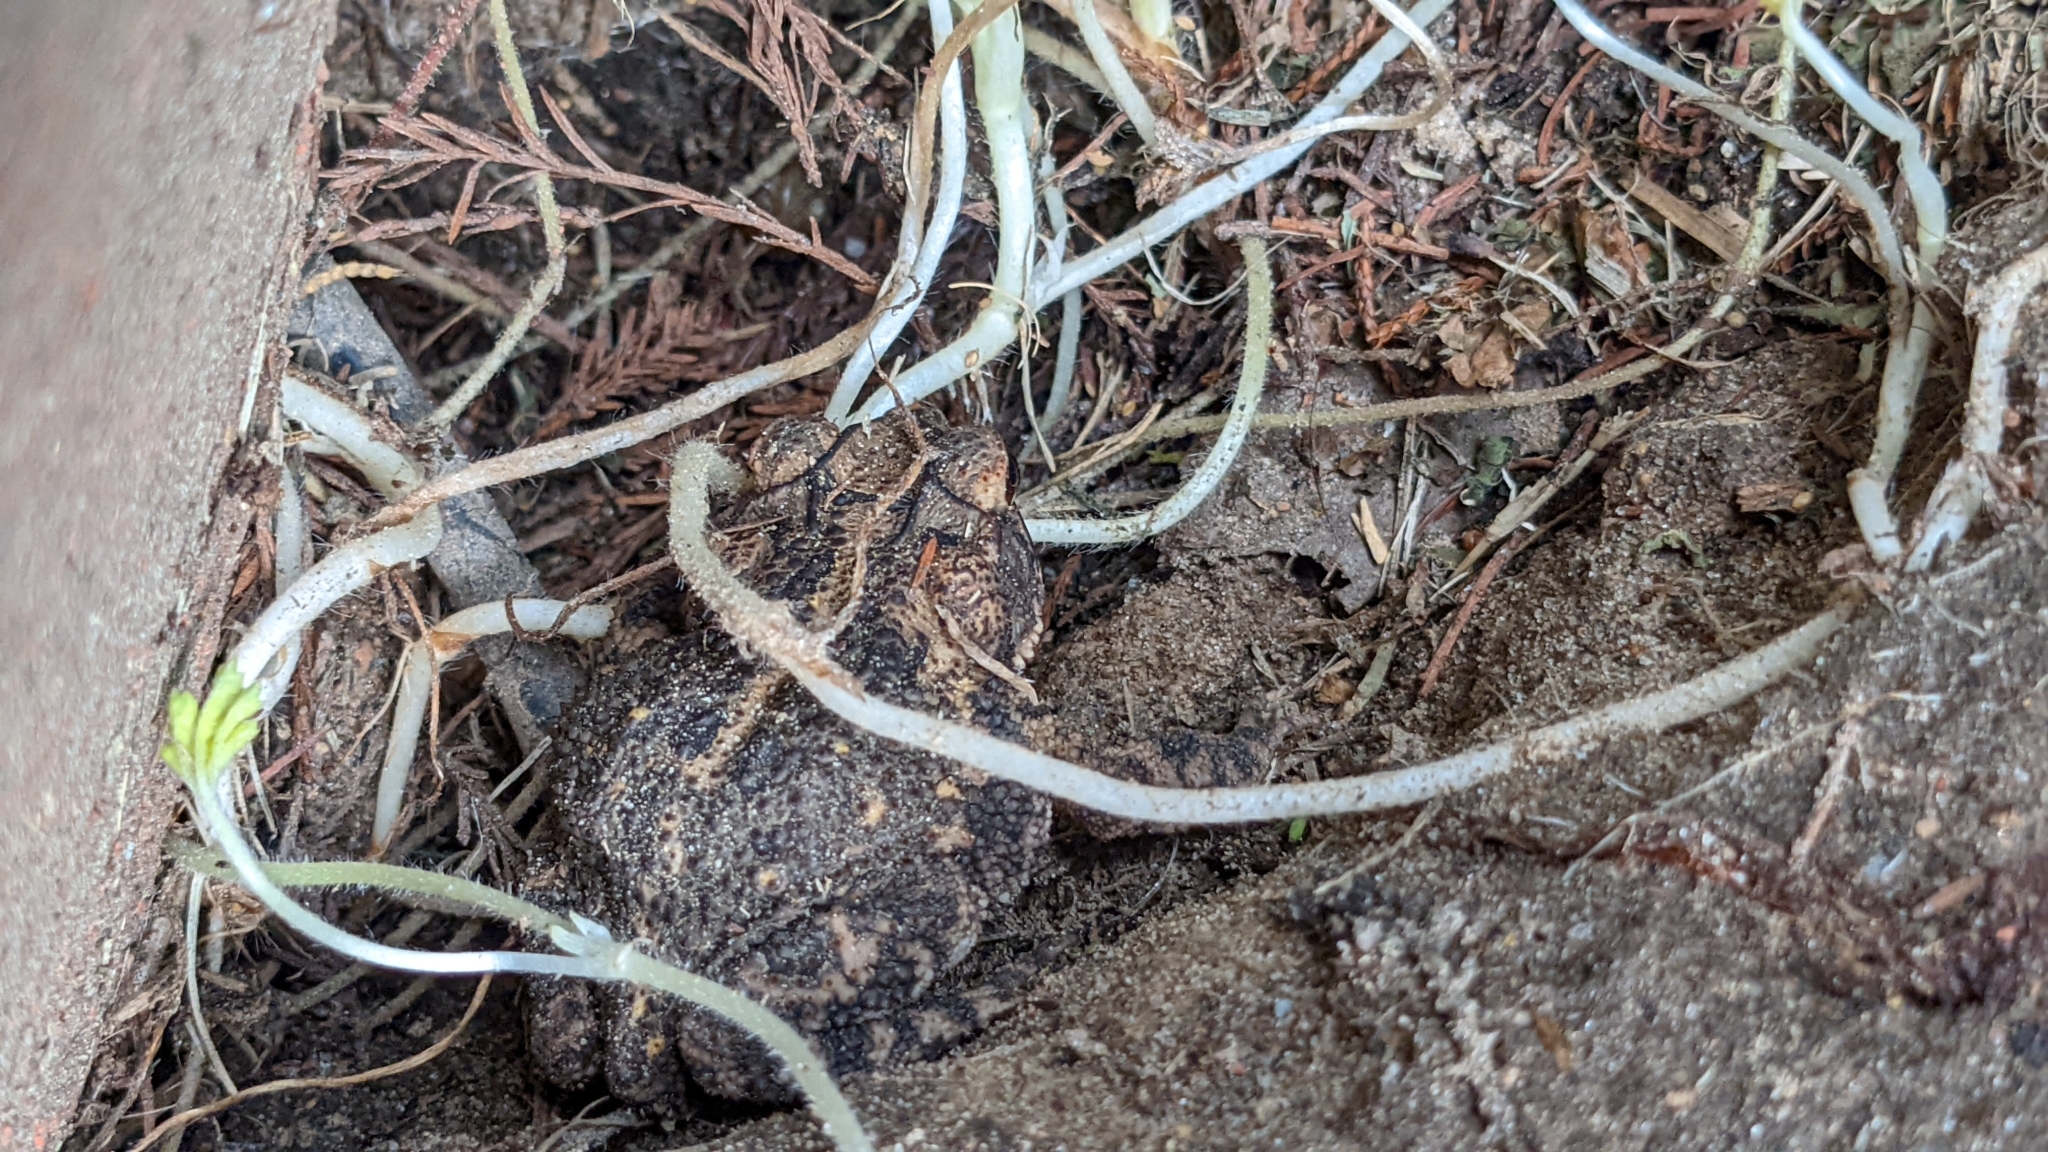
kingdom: Animalia
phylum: Chordata
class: Amphibia
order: Anura
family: Bufonidae
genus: Incilius
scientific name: Incilius nebulifer
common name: Gulf coast toad
